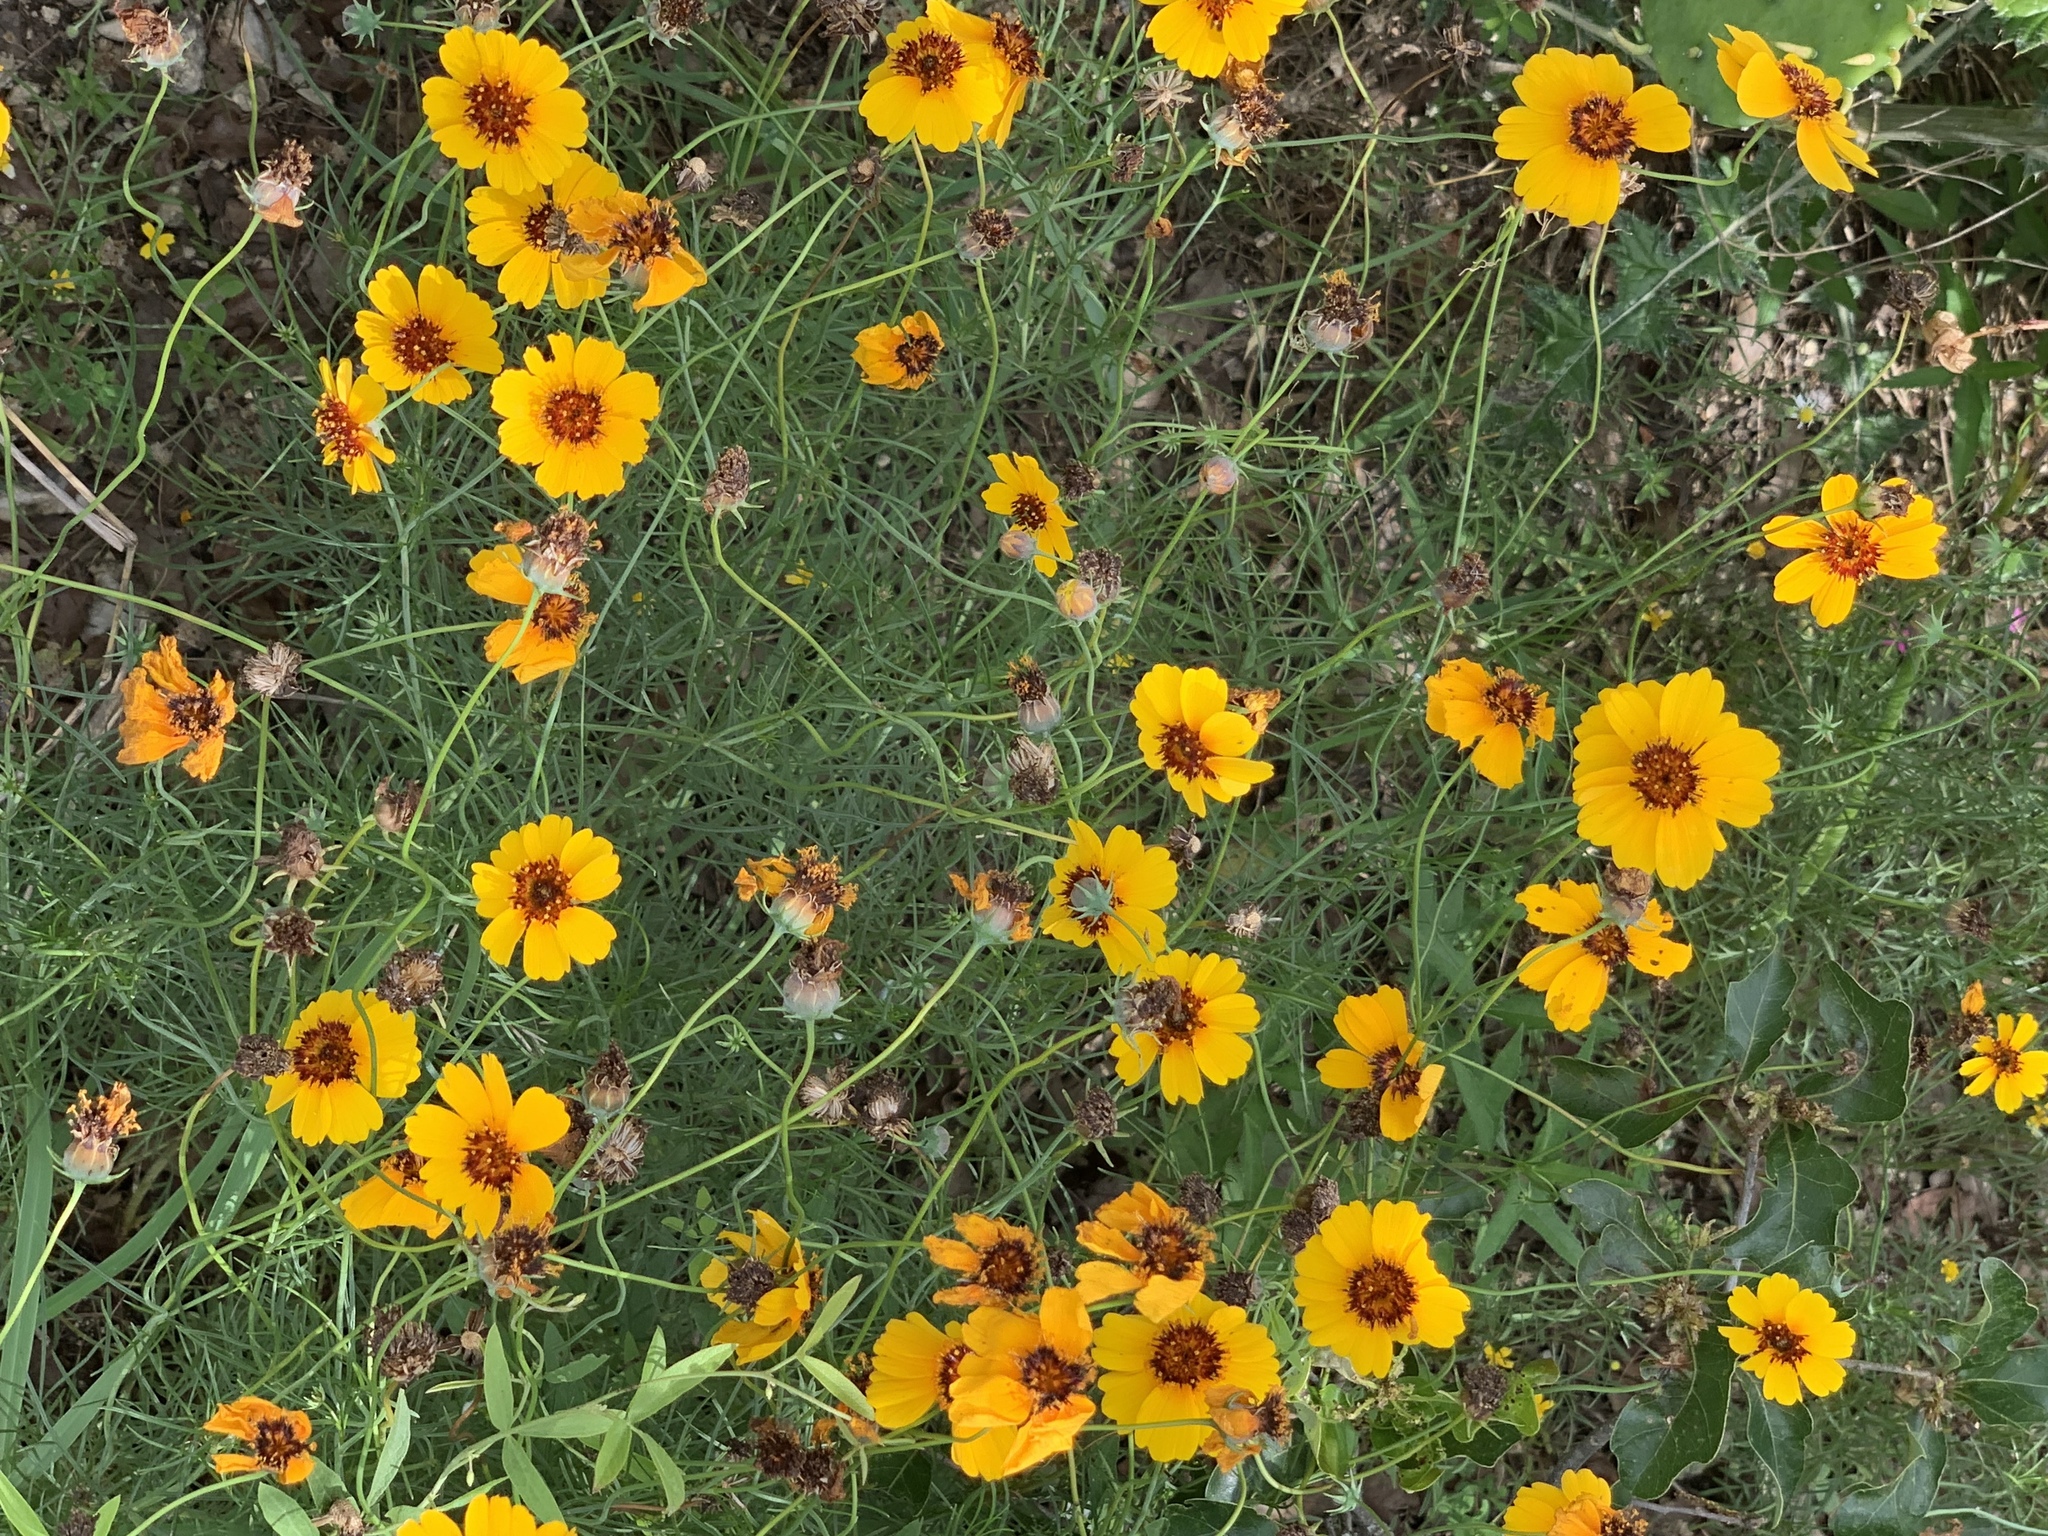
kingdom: Plantae
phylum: Tracheophyta
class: Magnoliopsida
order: Asterales
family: Asteraceae
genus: Thelesperma
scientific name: Thelesperma filifolium
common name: Stiff greenthread
